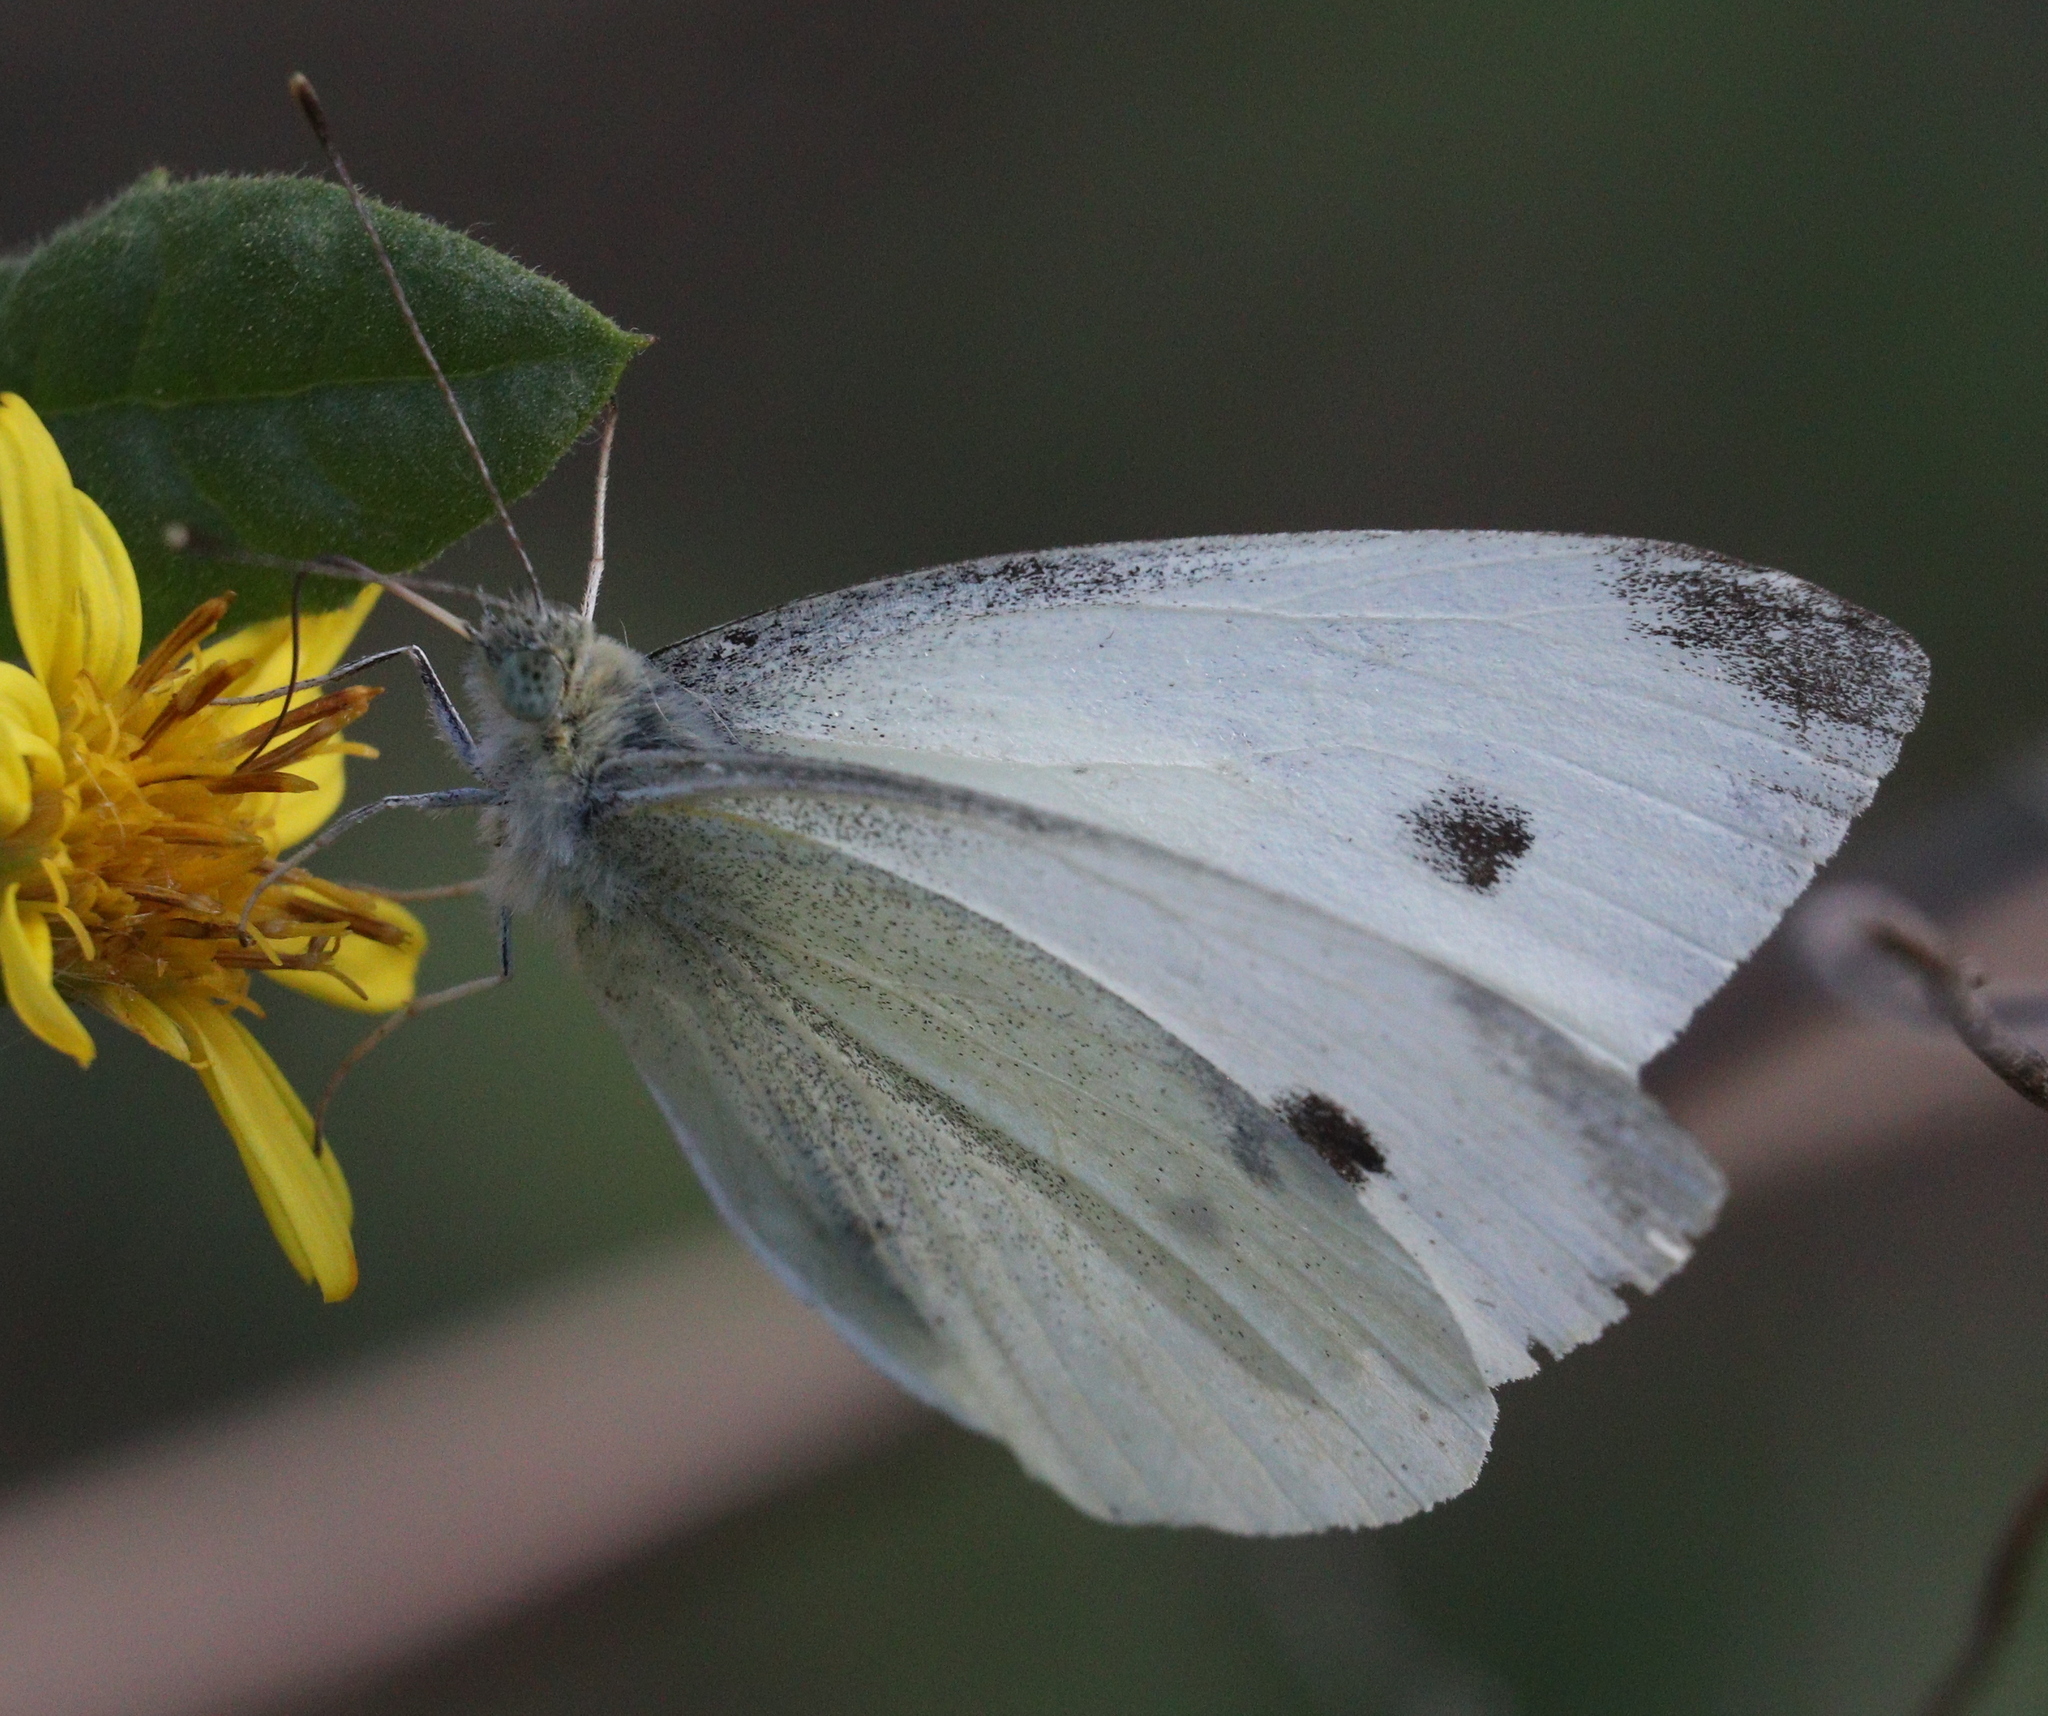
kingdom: Animalia
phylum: Arthropoda
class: Insecta
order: Lepidoptera
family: Pieridae
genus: Pieris
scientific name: Pieris rapae
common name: Small white
